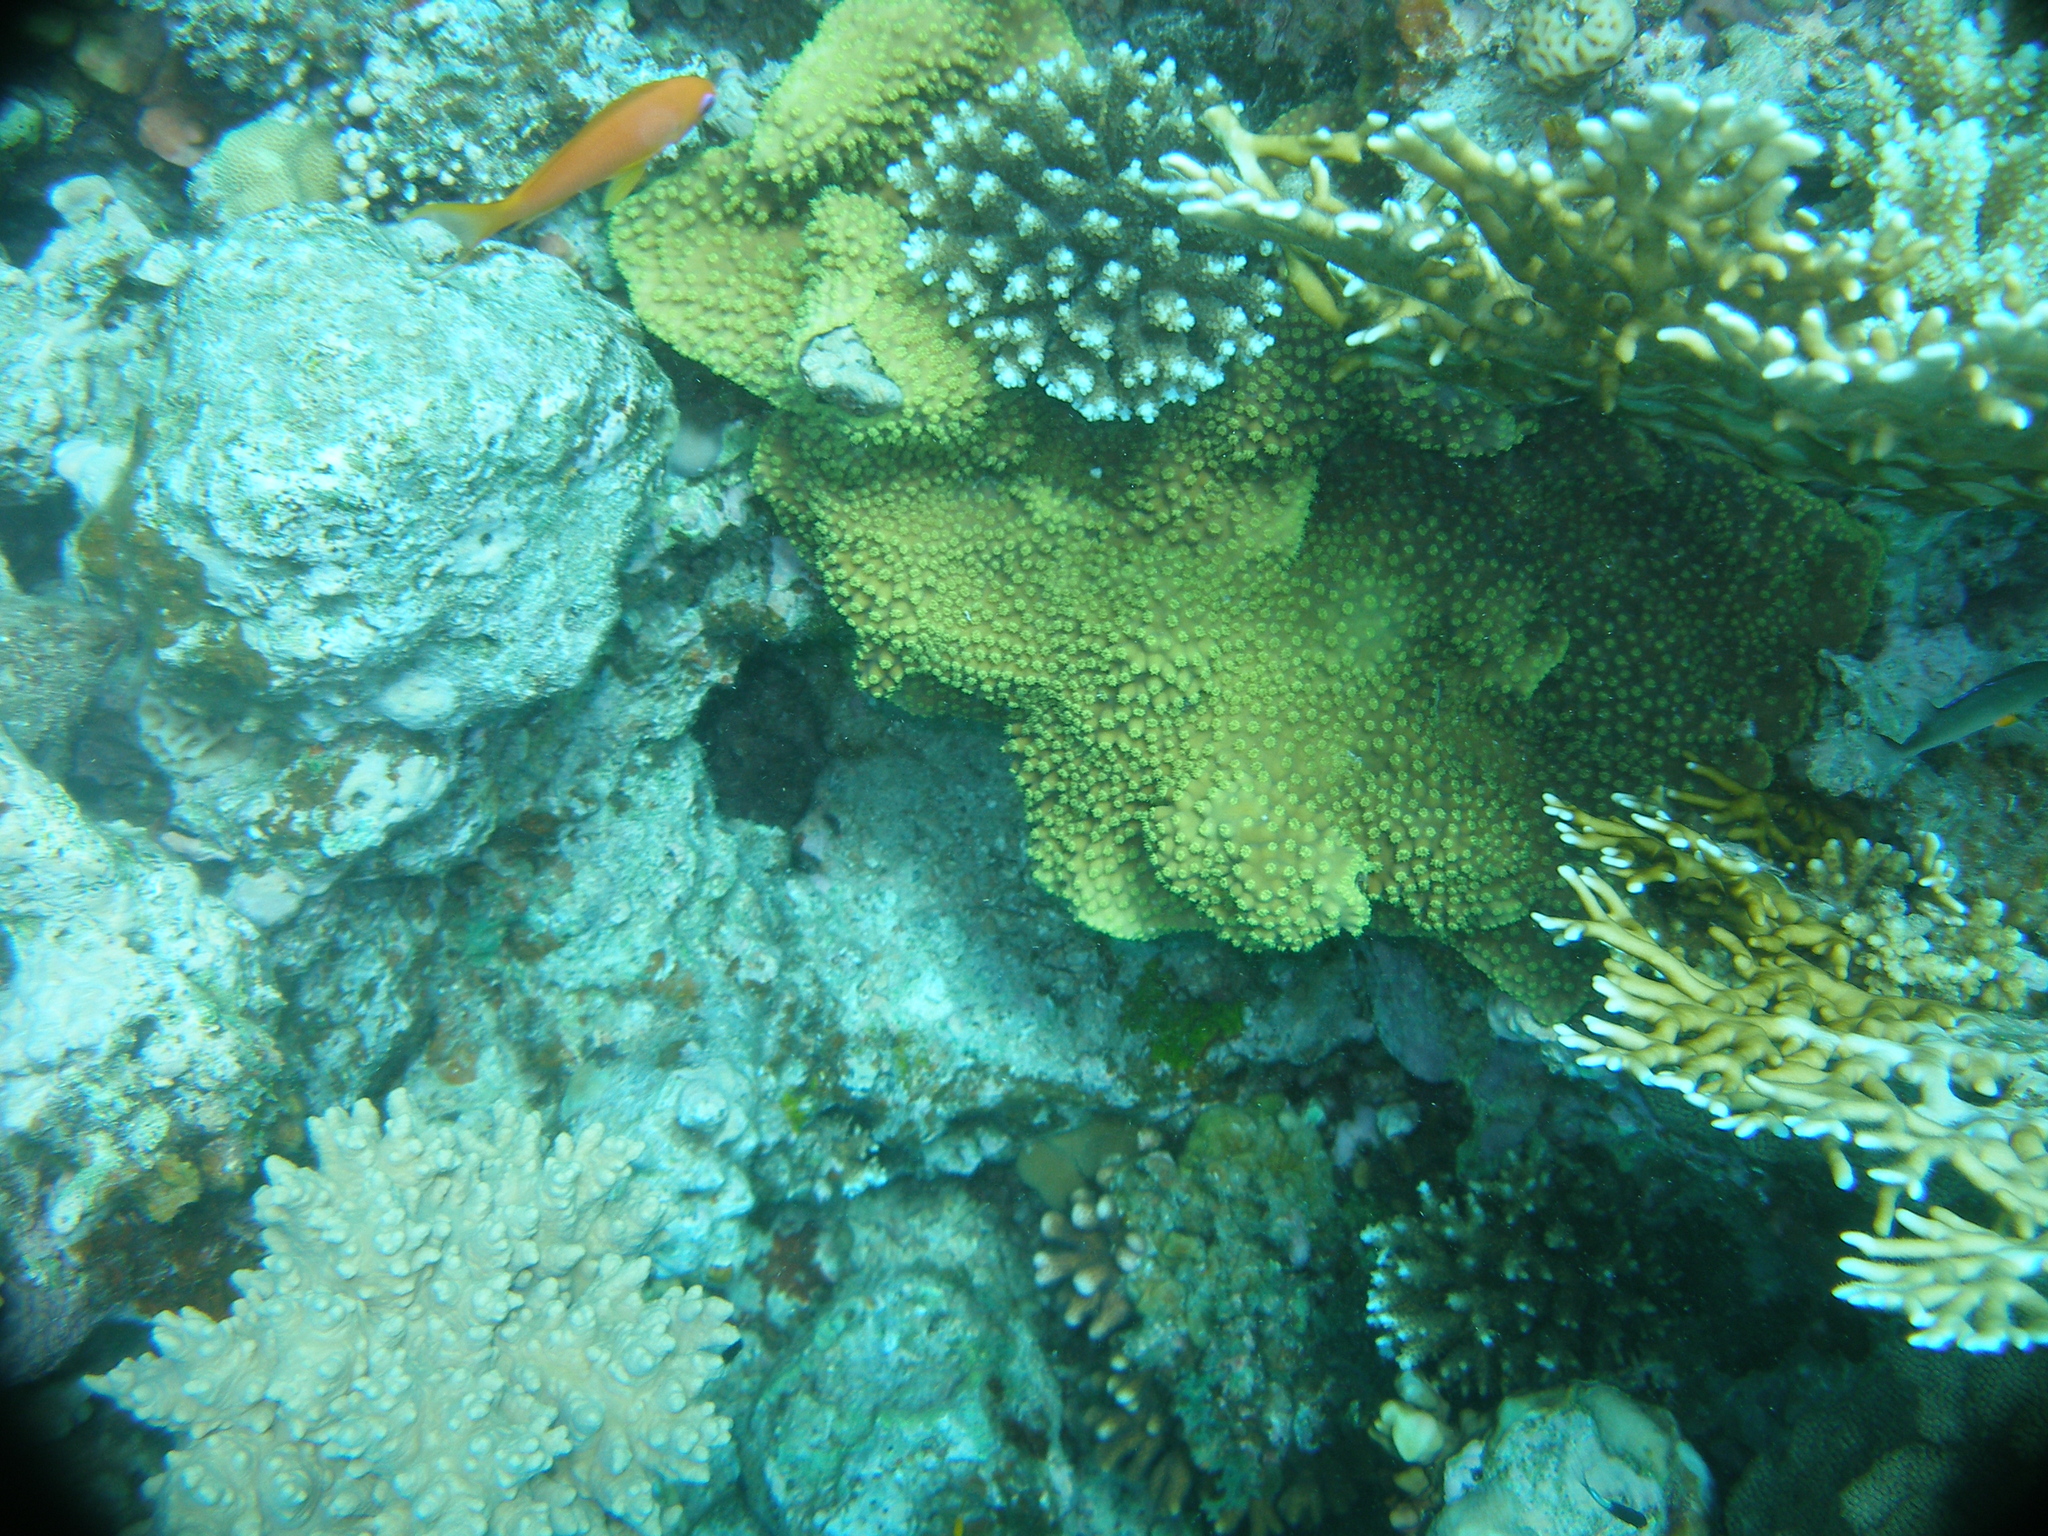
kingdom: Animalia
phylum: Cnidaria
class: Anthozoa
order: Scleractinia
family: Dendrophylliidae
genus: Turbinaria
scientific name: Turbinaria reniformis
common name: Disc coral
